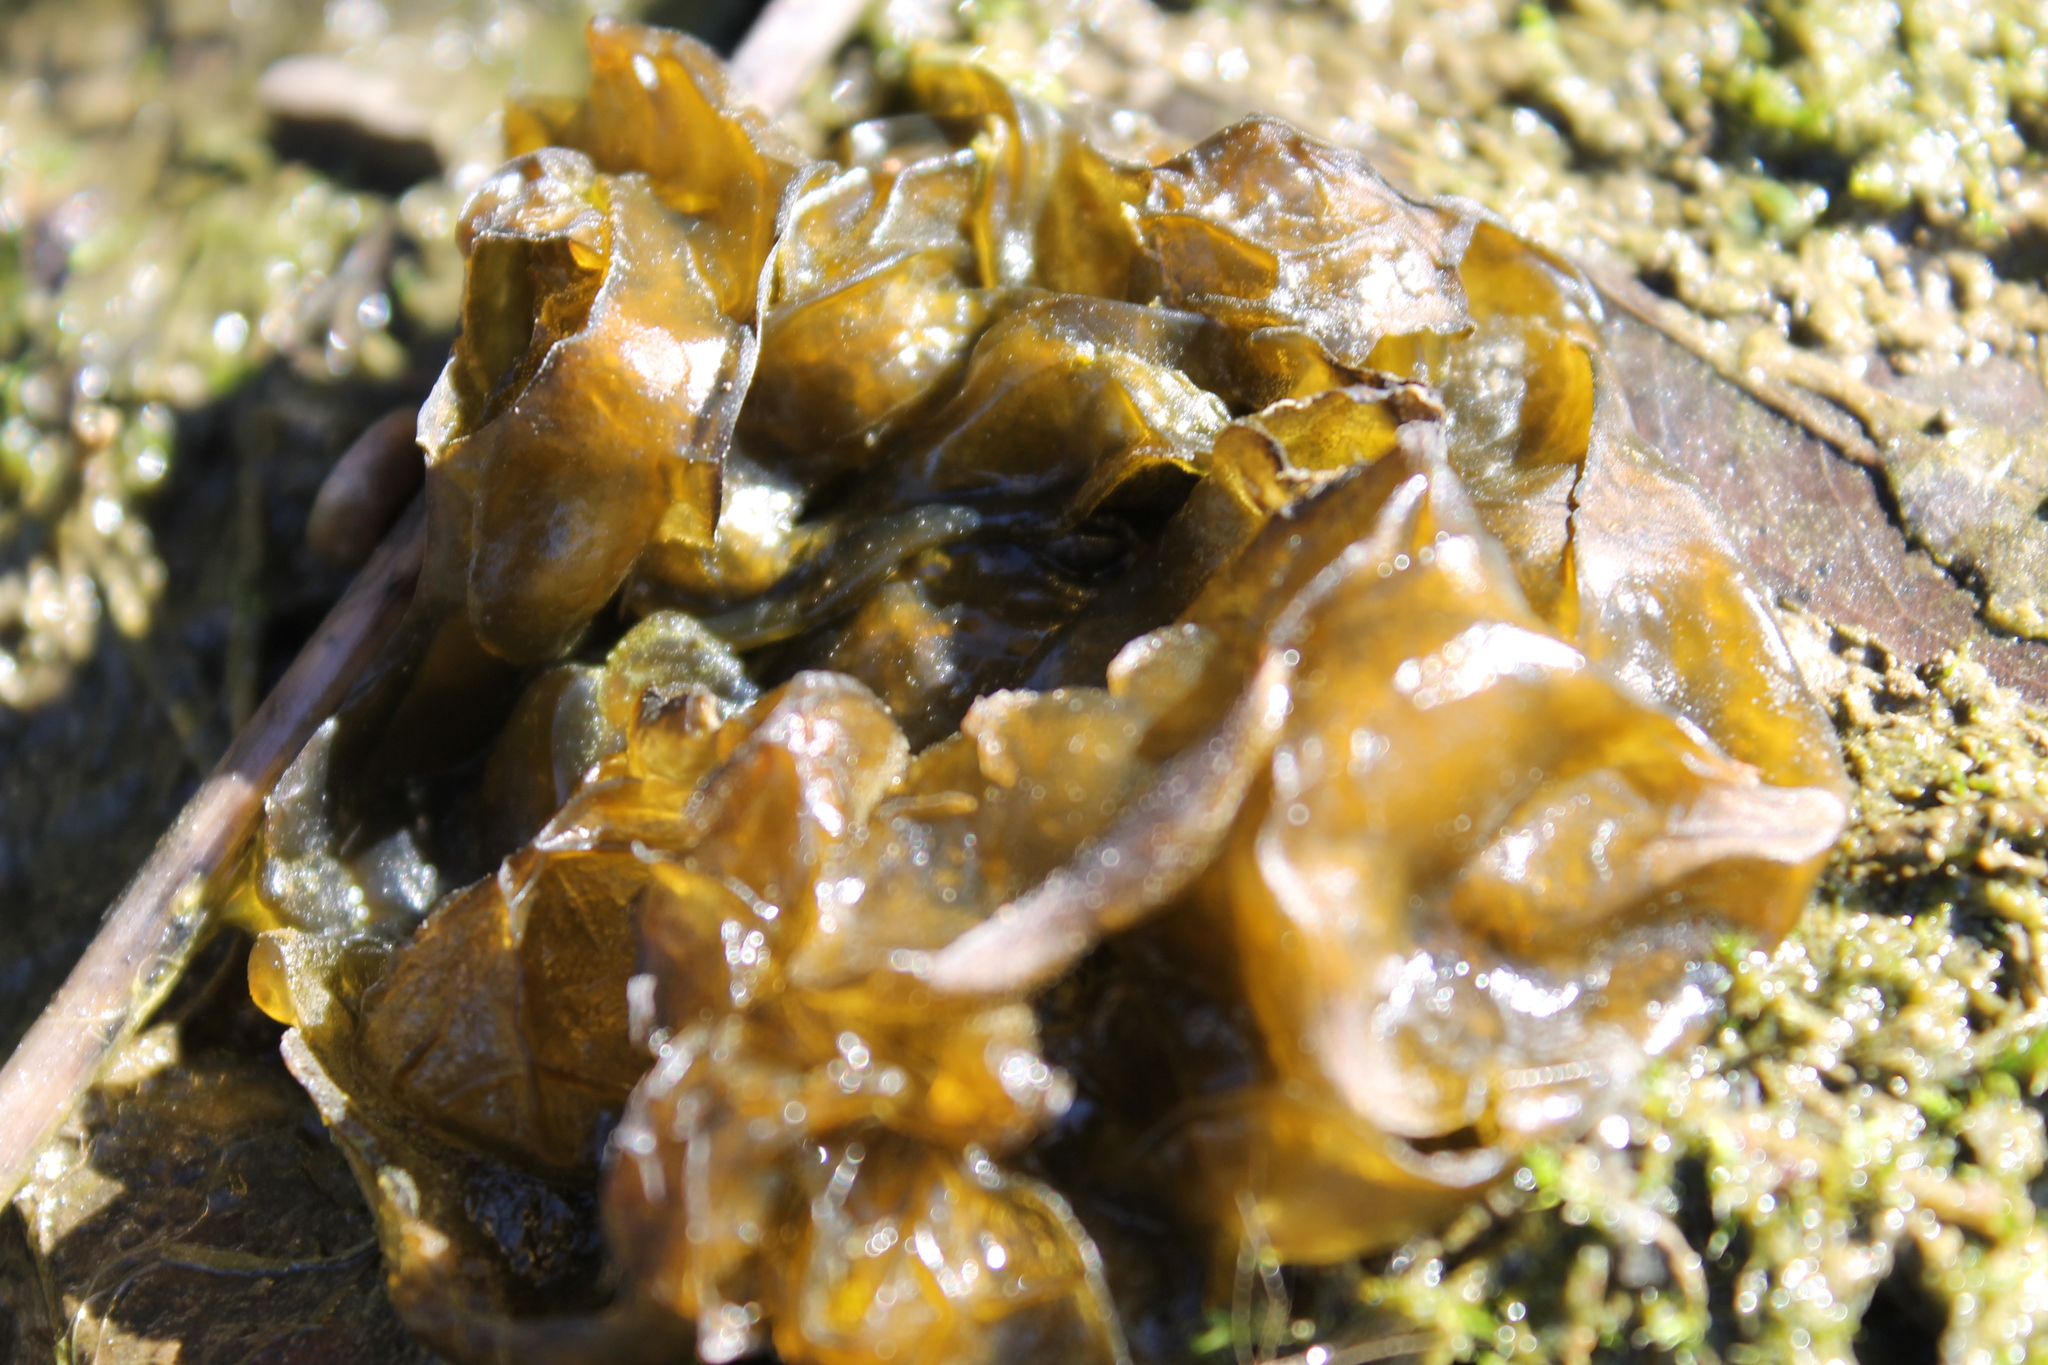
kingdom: Bacteria
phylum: Cyanobacteria
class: Cyanobacteriia
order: Cyanobacteriales
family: Nostocaceae
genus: Nostoc
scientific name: Nostoc commune
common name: Star jelly
